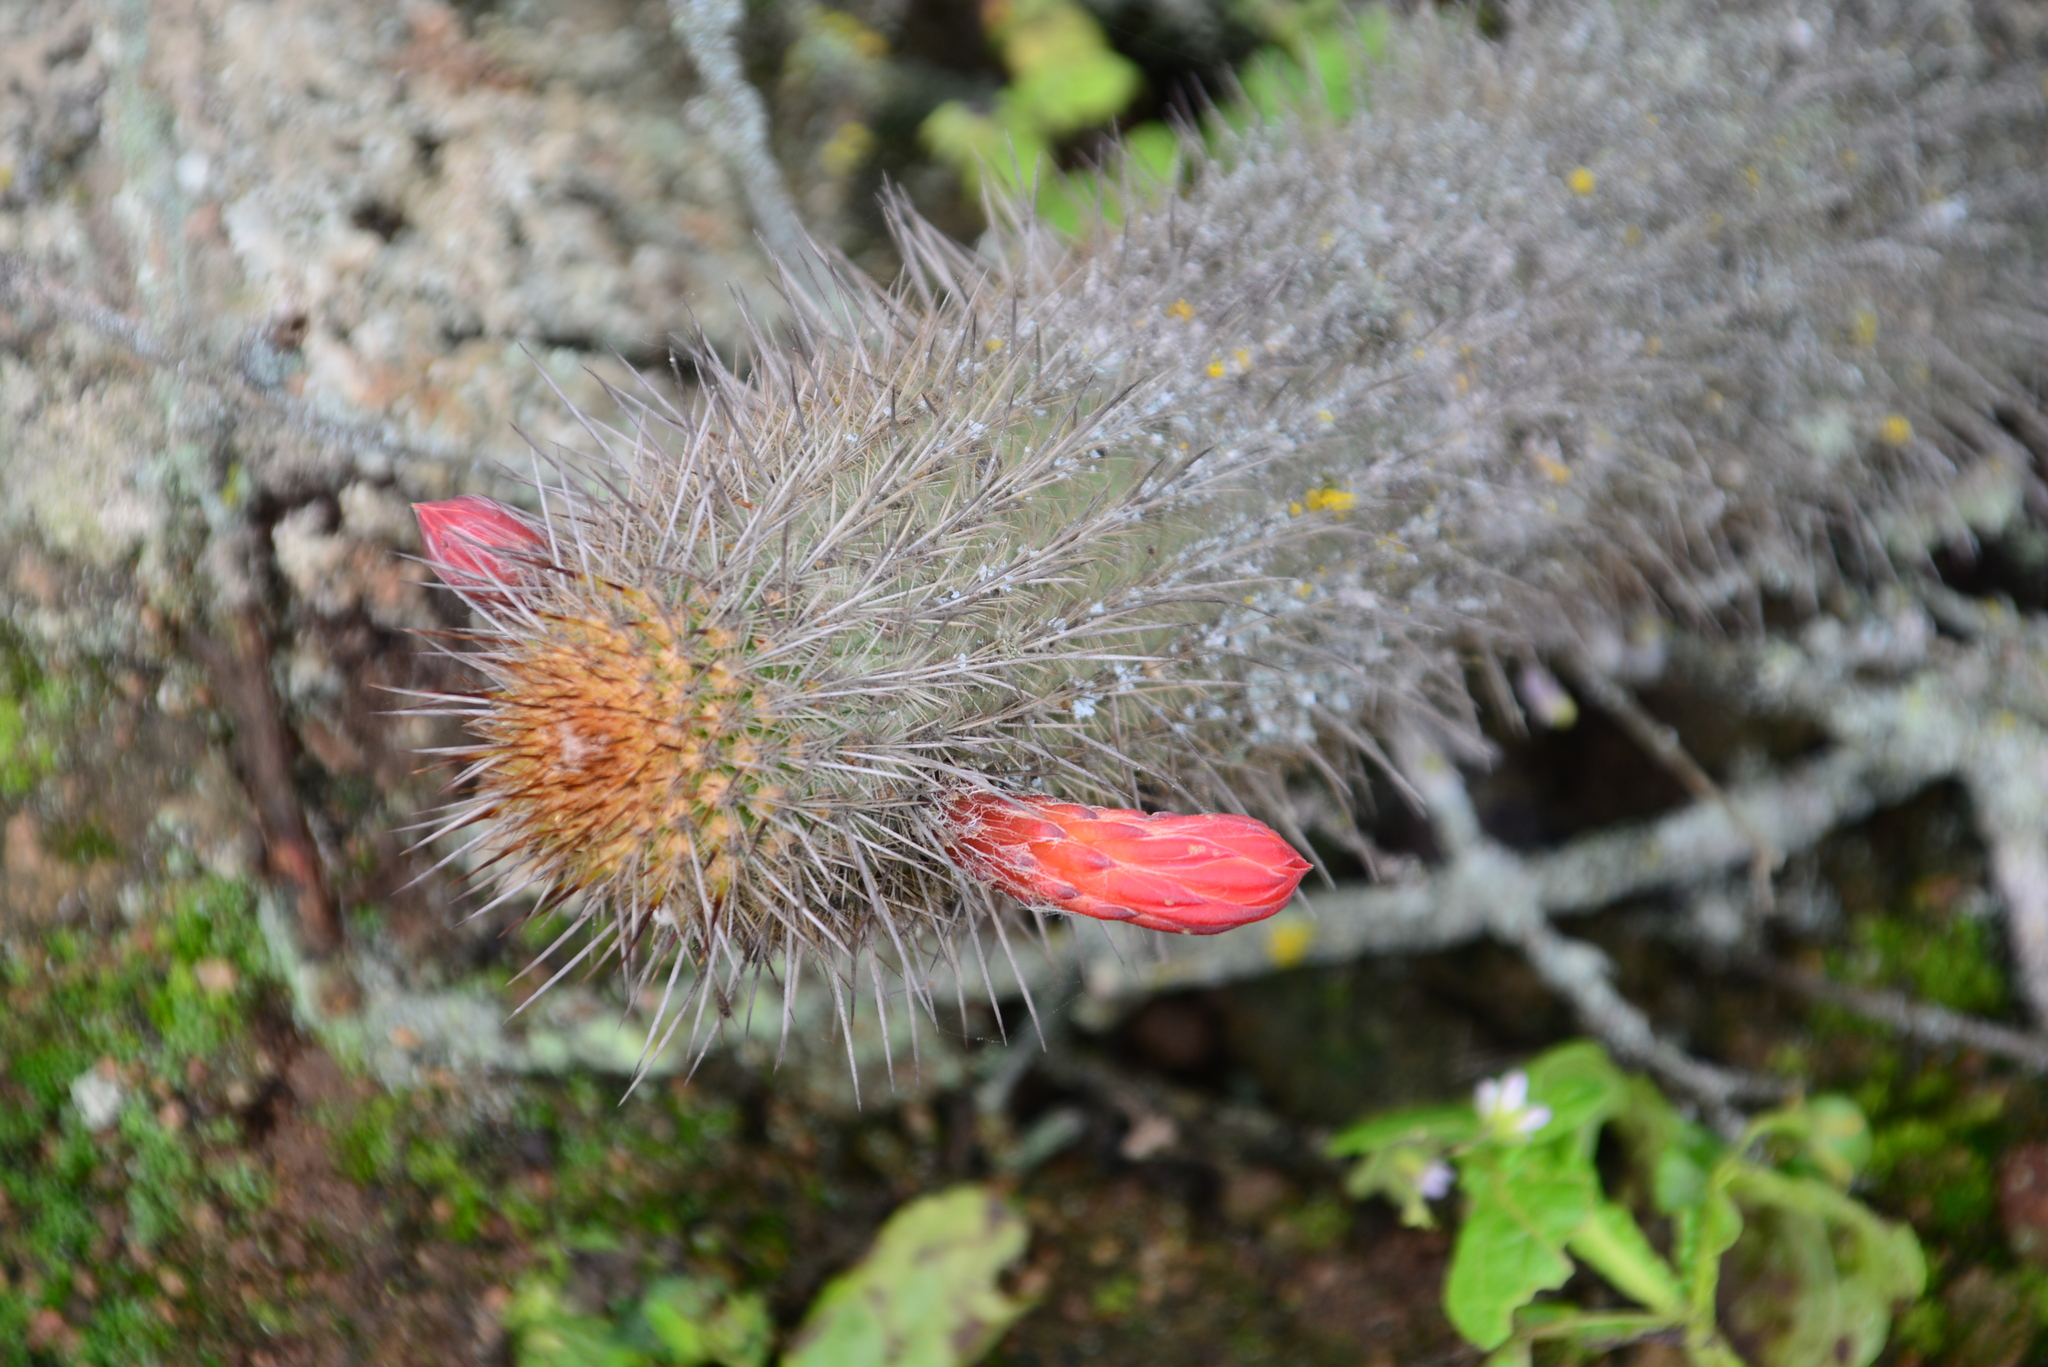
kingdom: Plantae
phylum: Tracheophyta
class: Magnoliopsida
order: Caryophyllales
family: Cactaceae
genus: Borzicactus
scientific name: Borzicactus acanthurus
